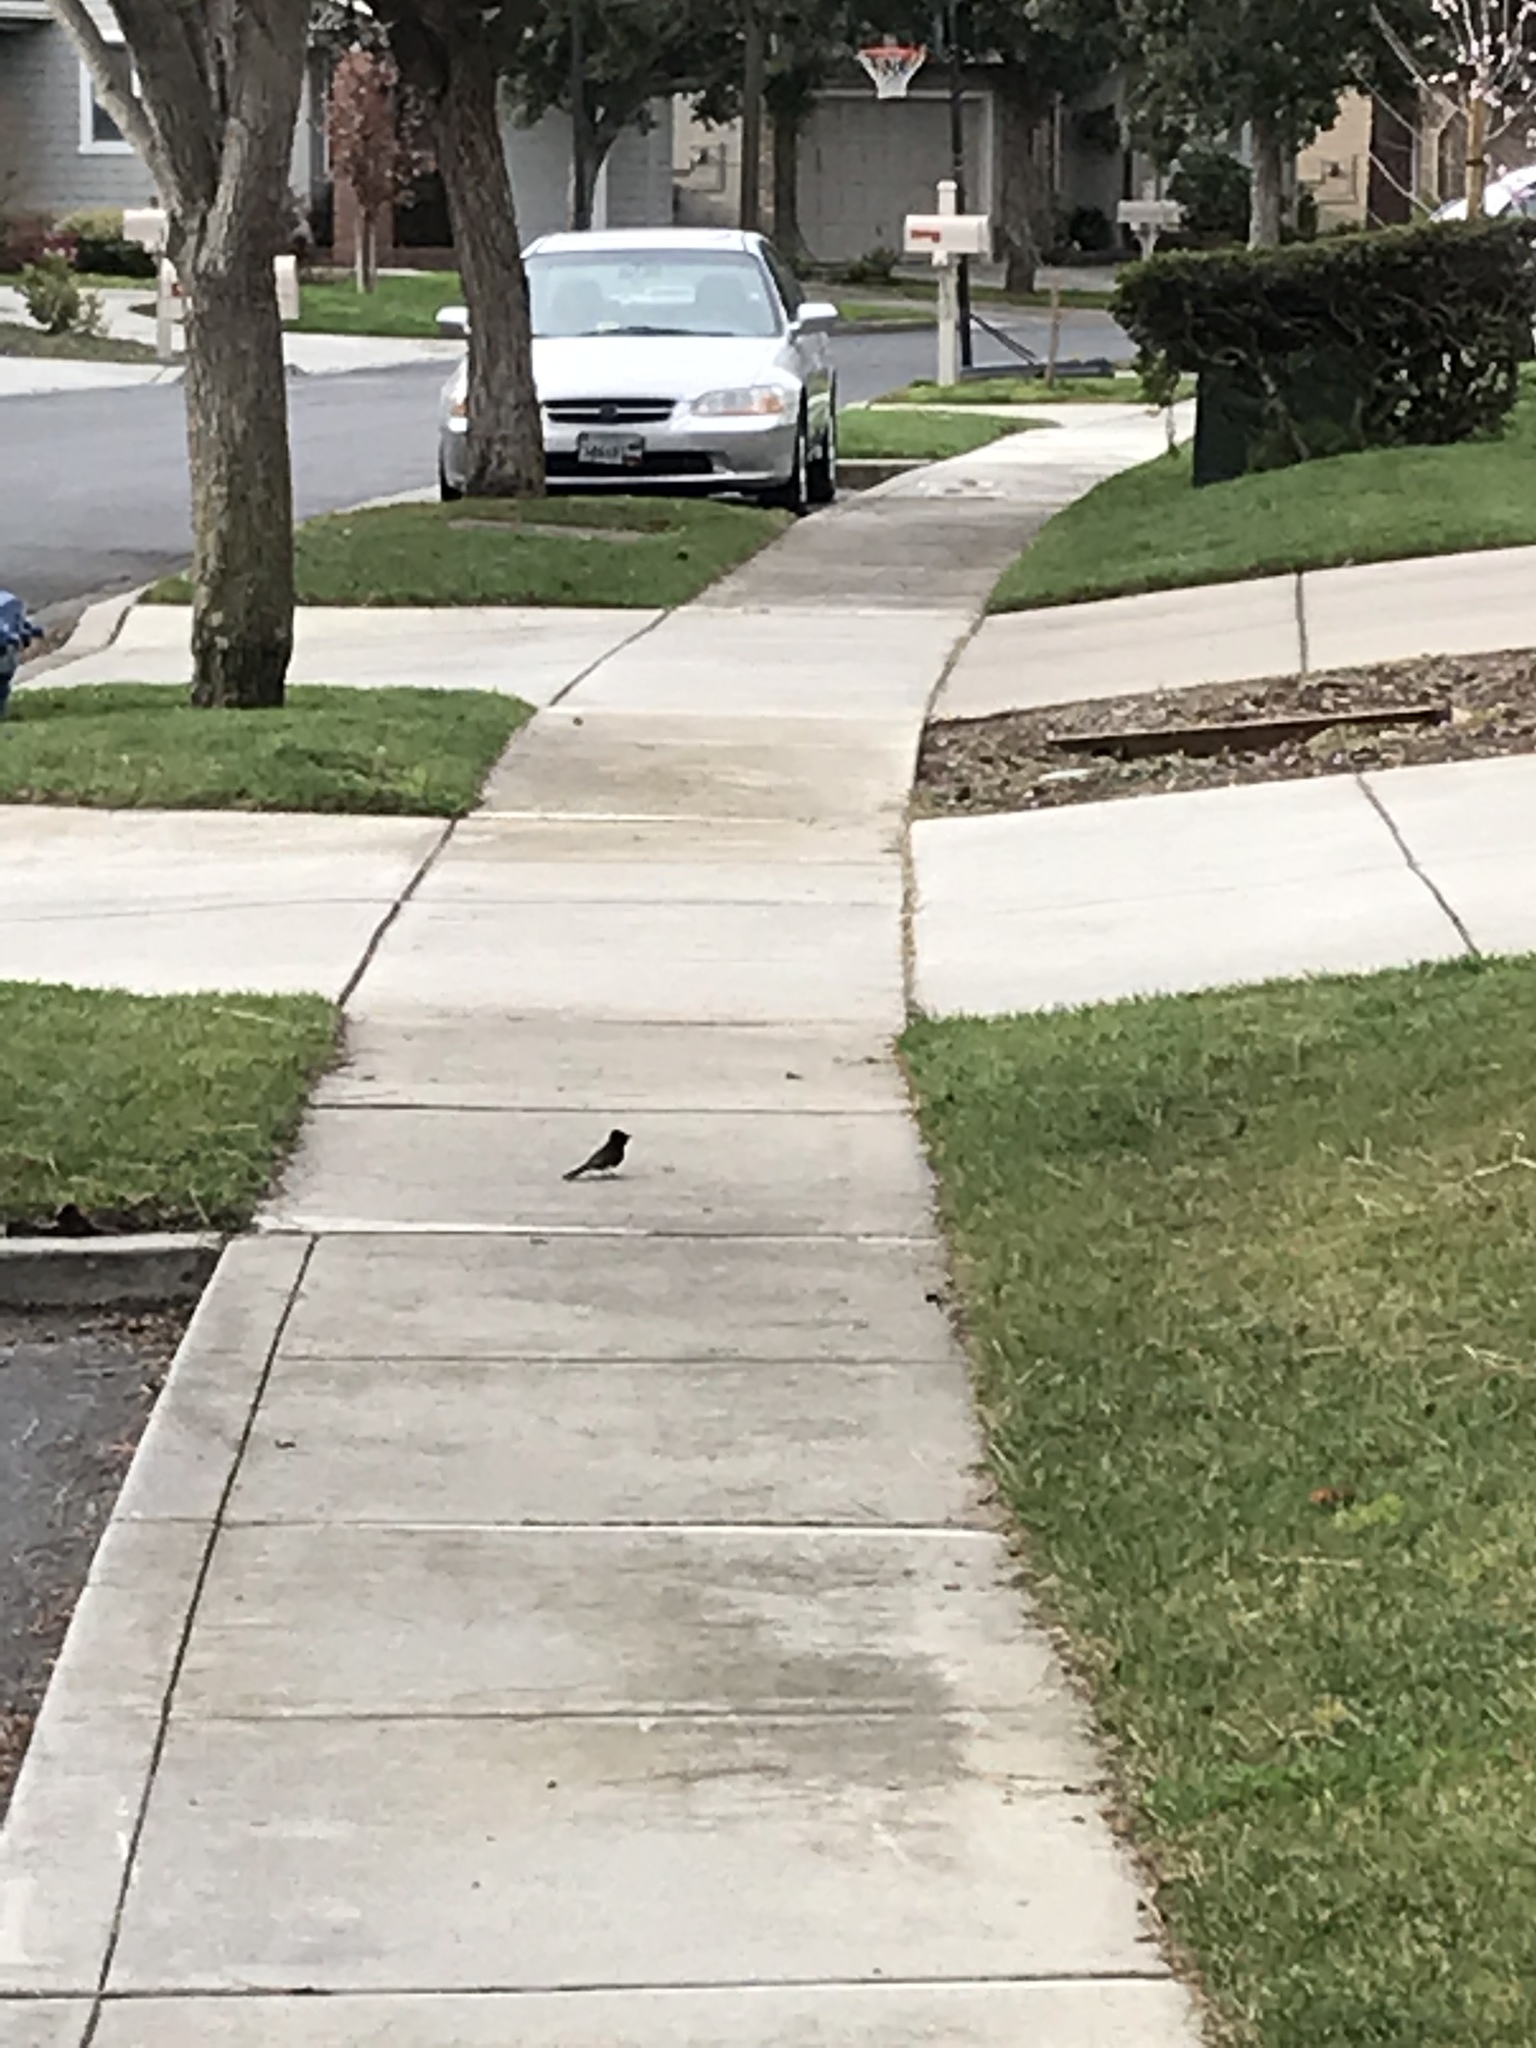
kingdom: Animalia
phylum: Chordata
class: Aves
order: Passeriformes
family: Tyrannidae
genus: Sayornis
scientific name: Sayornis nigricans
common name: Black phoebe
